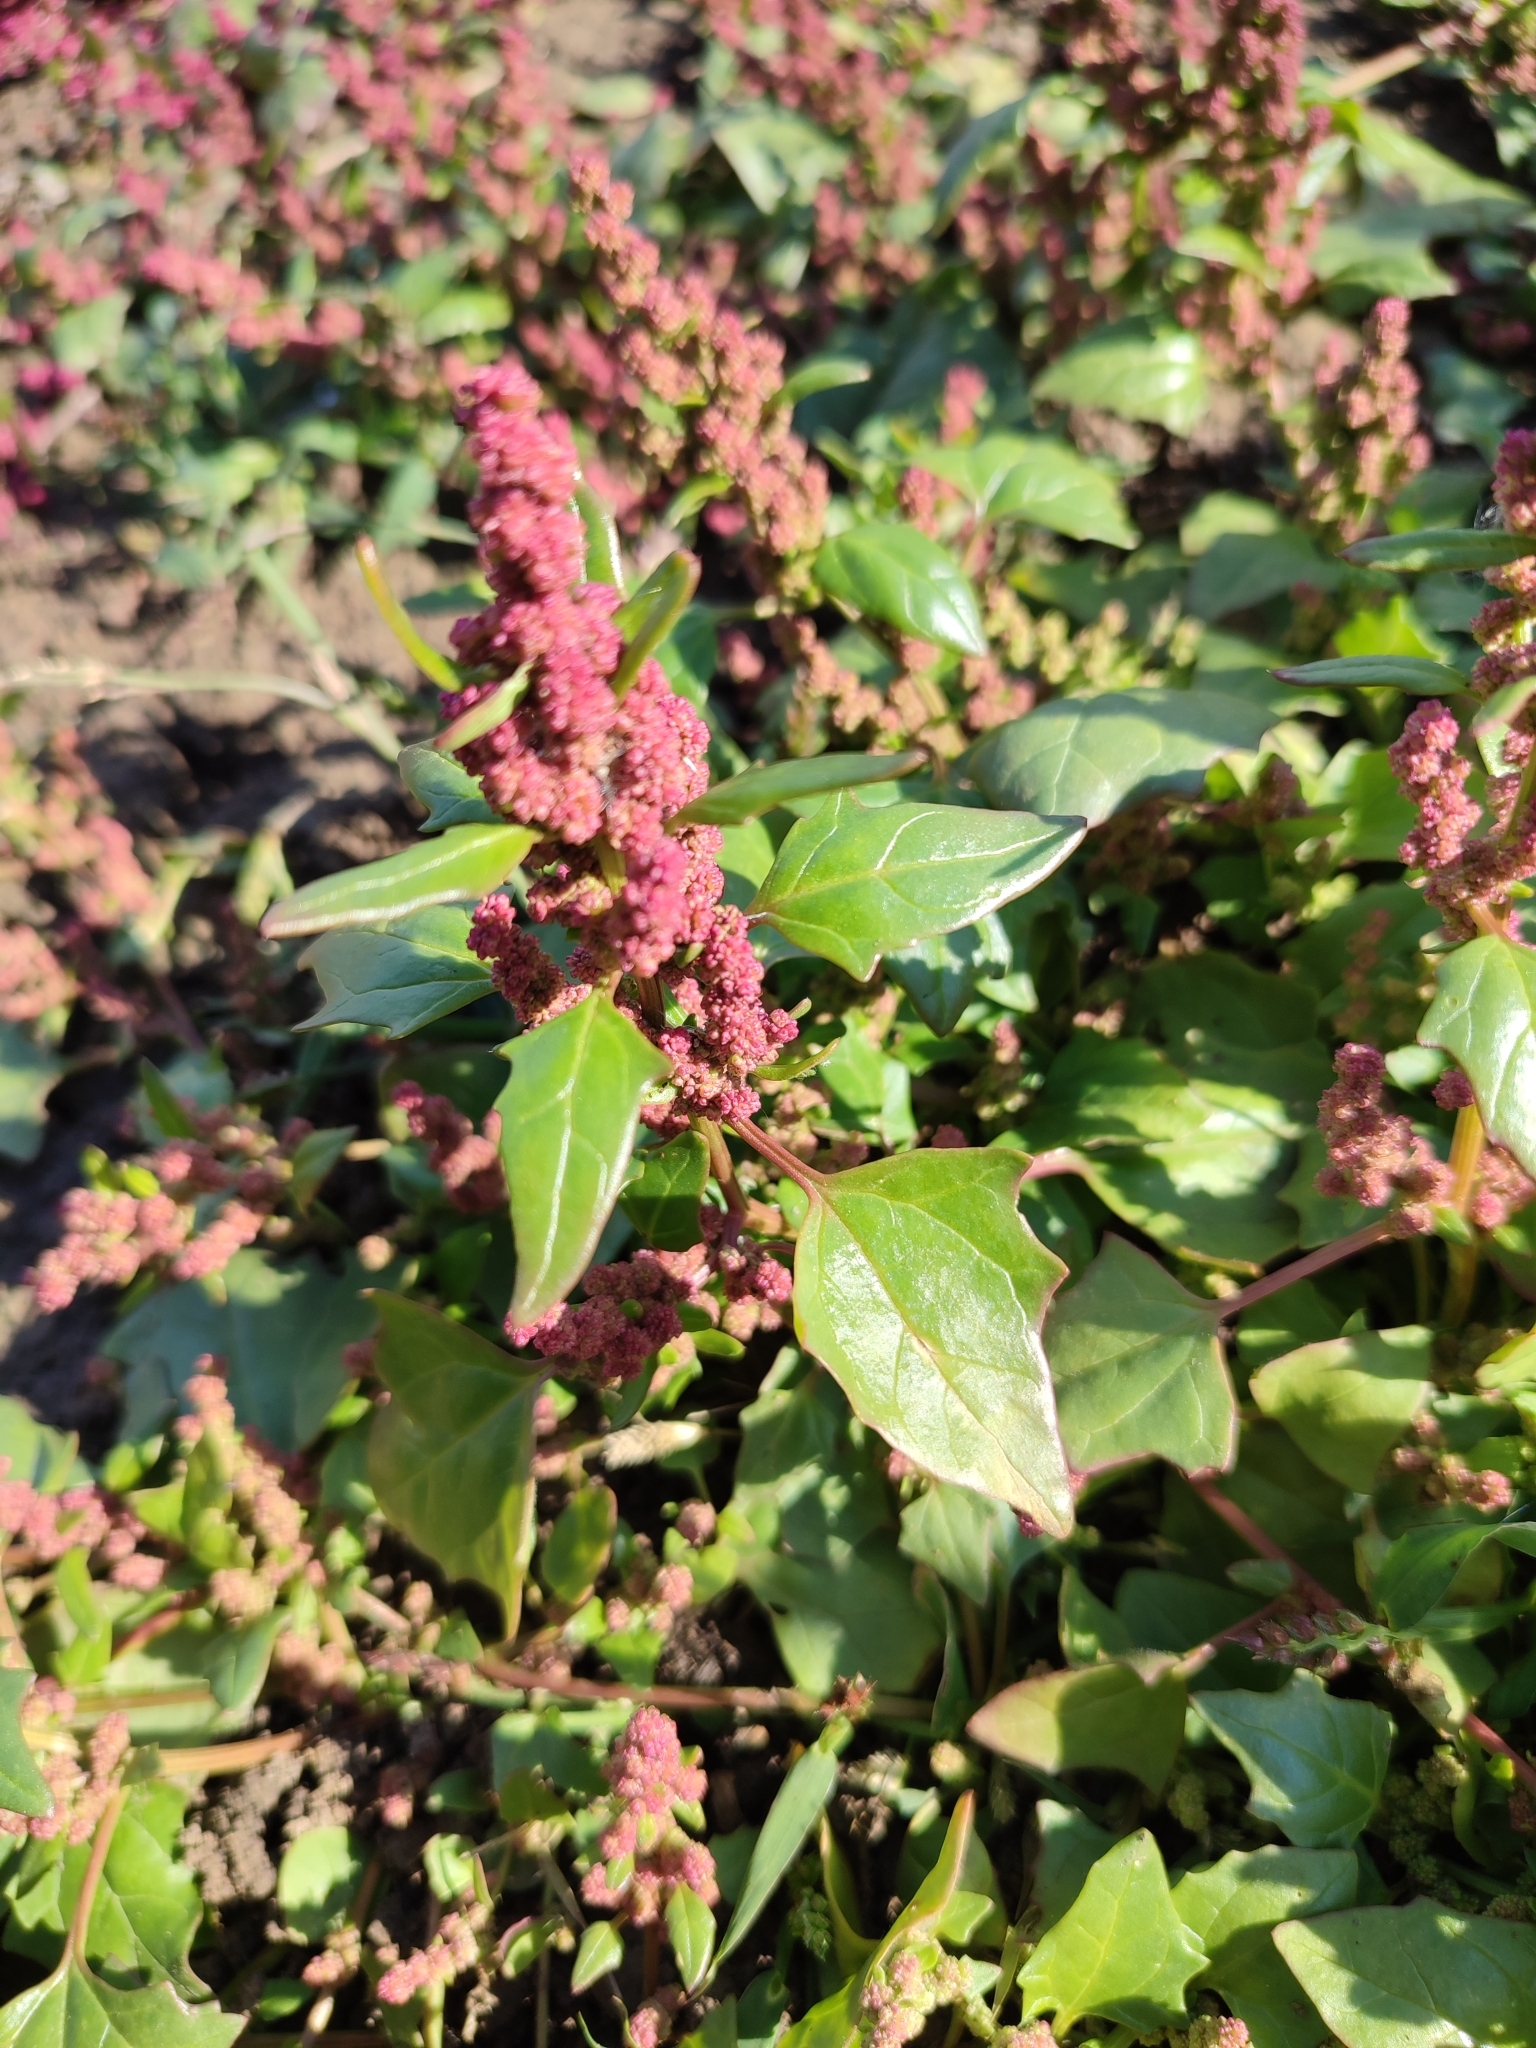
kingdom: Plantae
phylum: Tracheophyta
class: Magnoliopsida
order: Caryophyllales
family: Amaranthaceae
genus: Oxybasis
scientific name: Oxybasis rubra
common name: Red goosefoot
